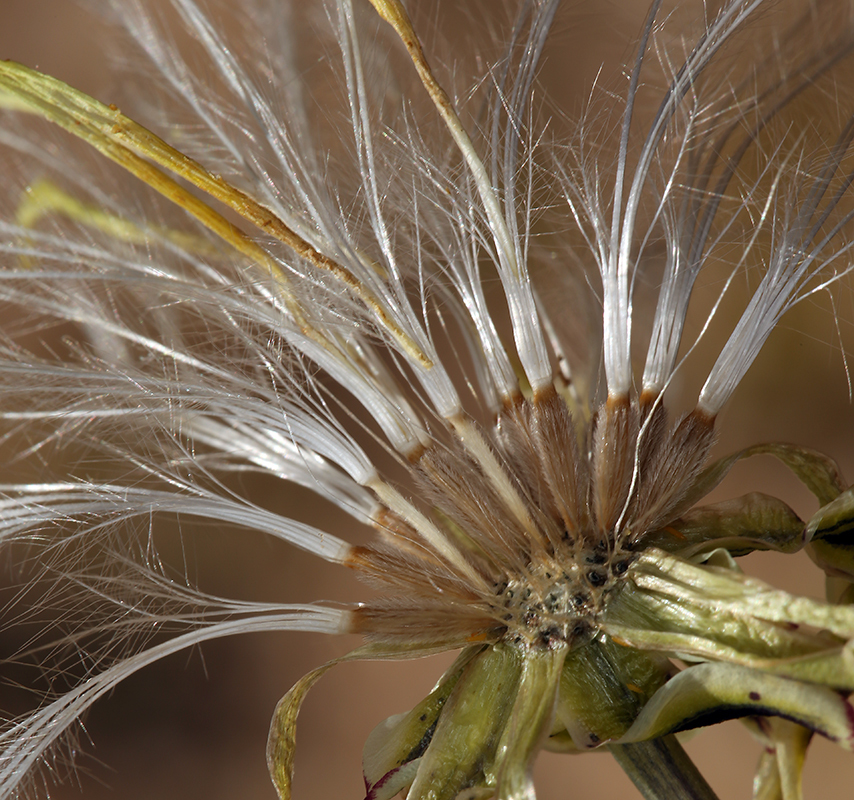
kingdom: Plantae
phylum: Tracheophyta
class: Magnoliopsida
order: Asterales
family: Asteraceae
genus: Anisocoma
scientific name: Anisocoma acaulis
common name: Scalebud
